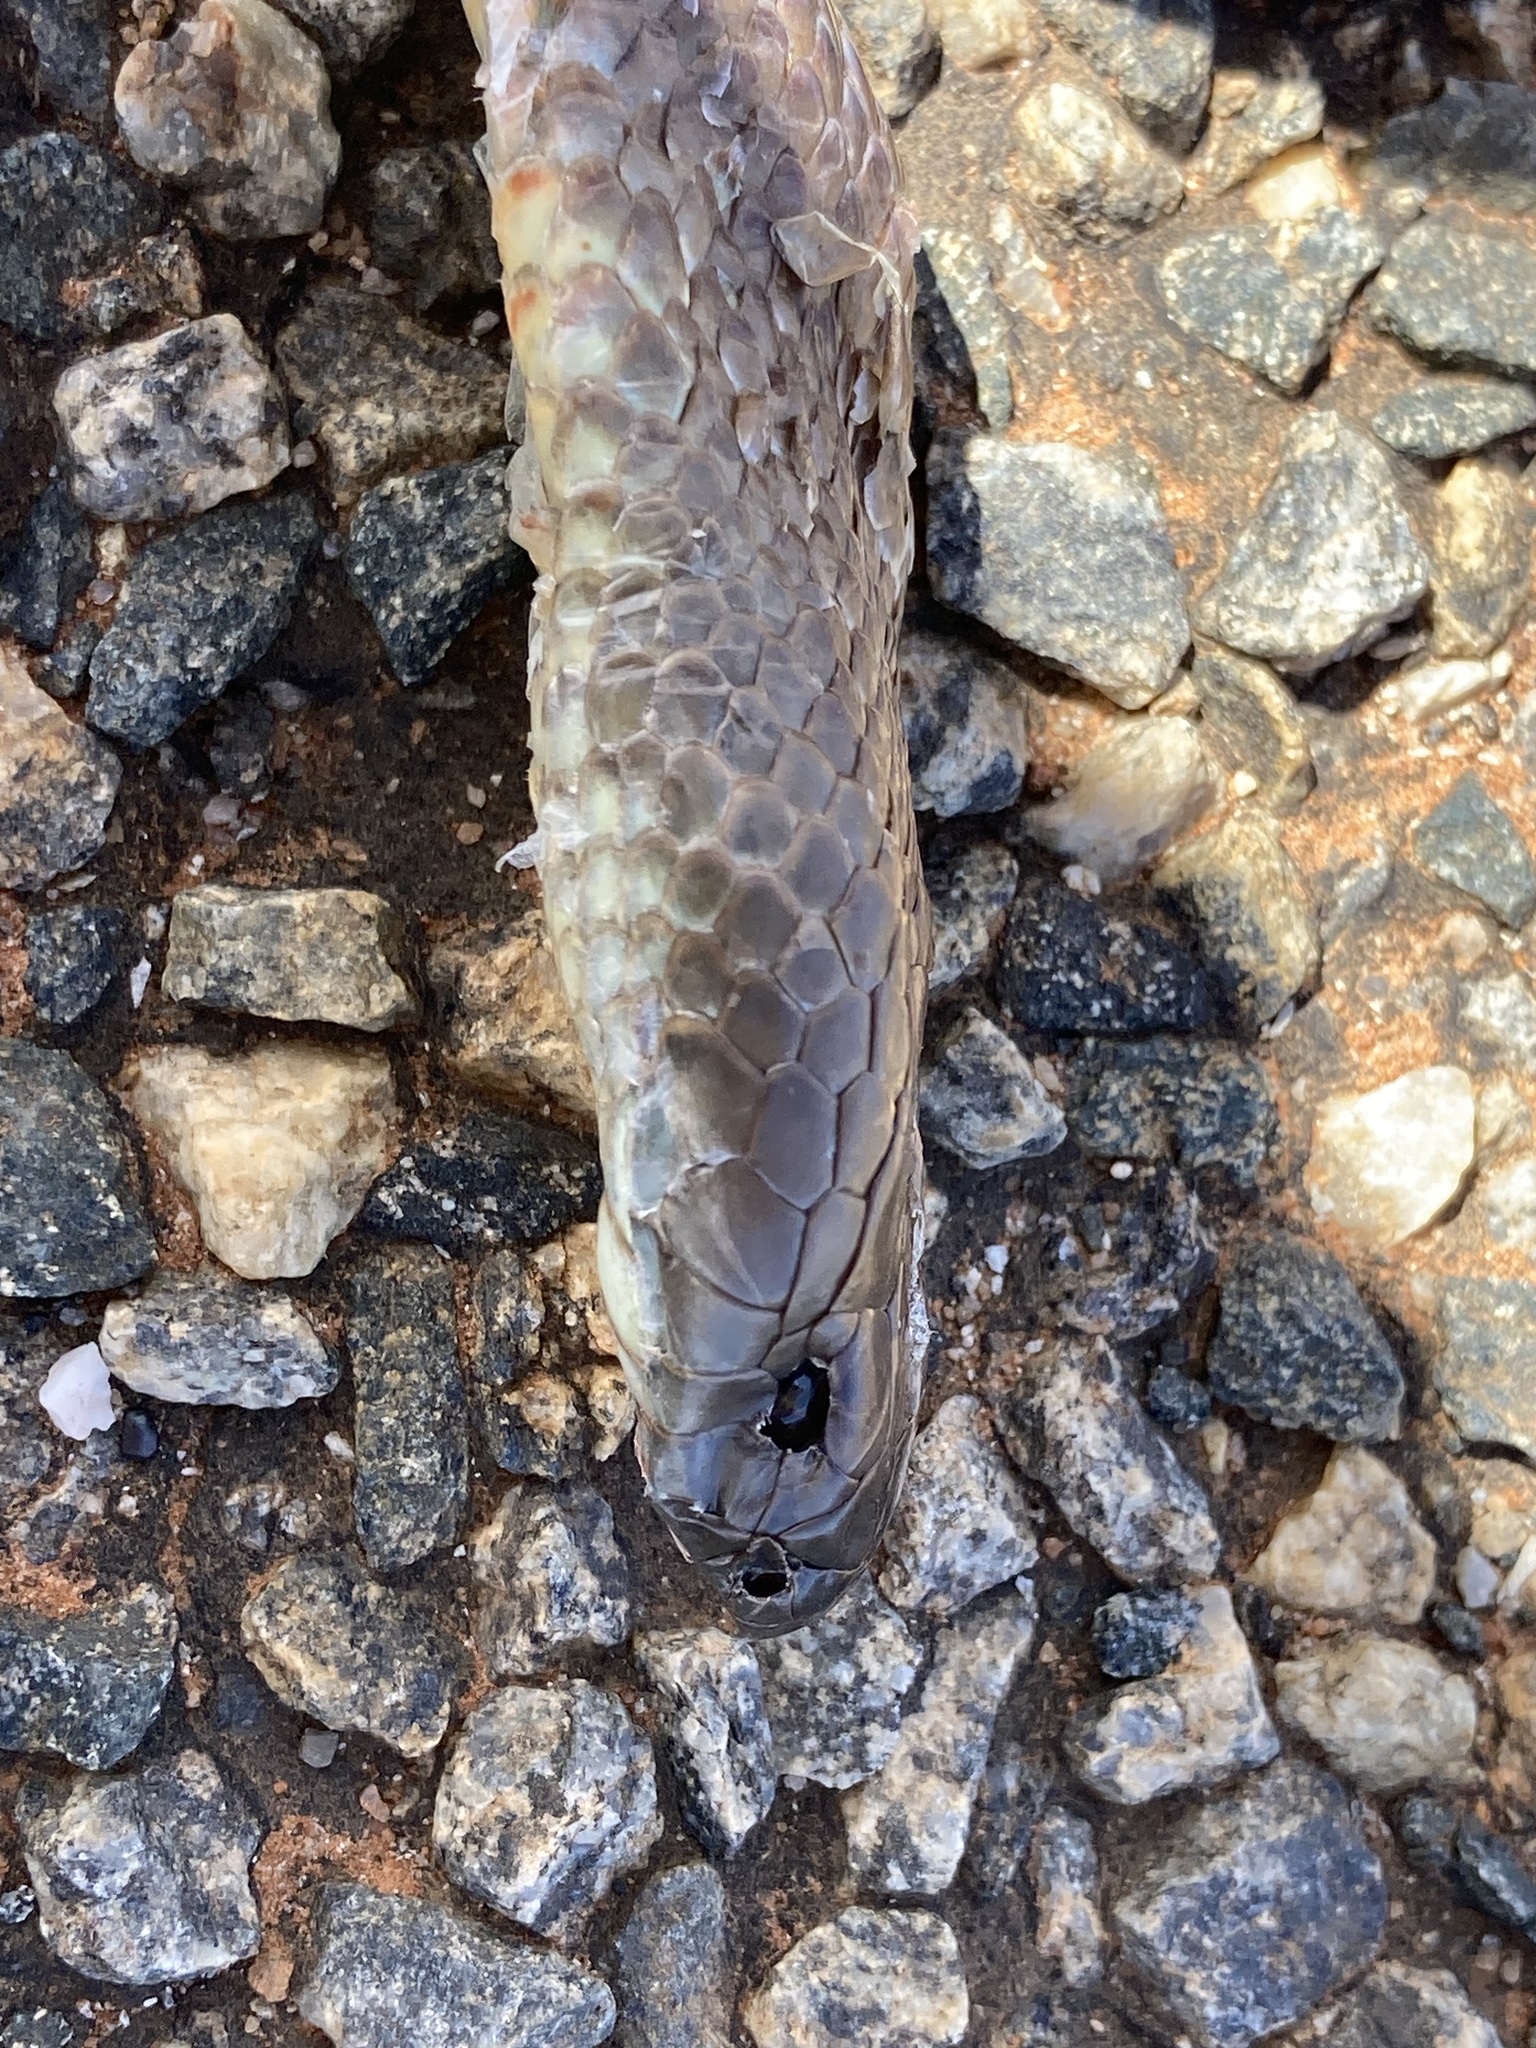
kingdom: Animalia
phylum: Chordata
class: Squamata
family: Elapidae
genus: Pseudechis
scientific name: Pseudechis australis
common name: King brown snake
